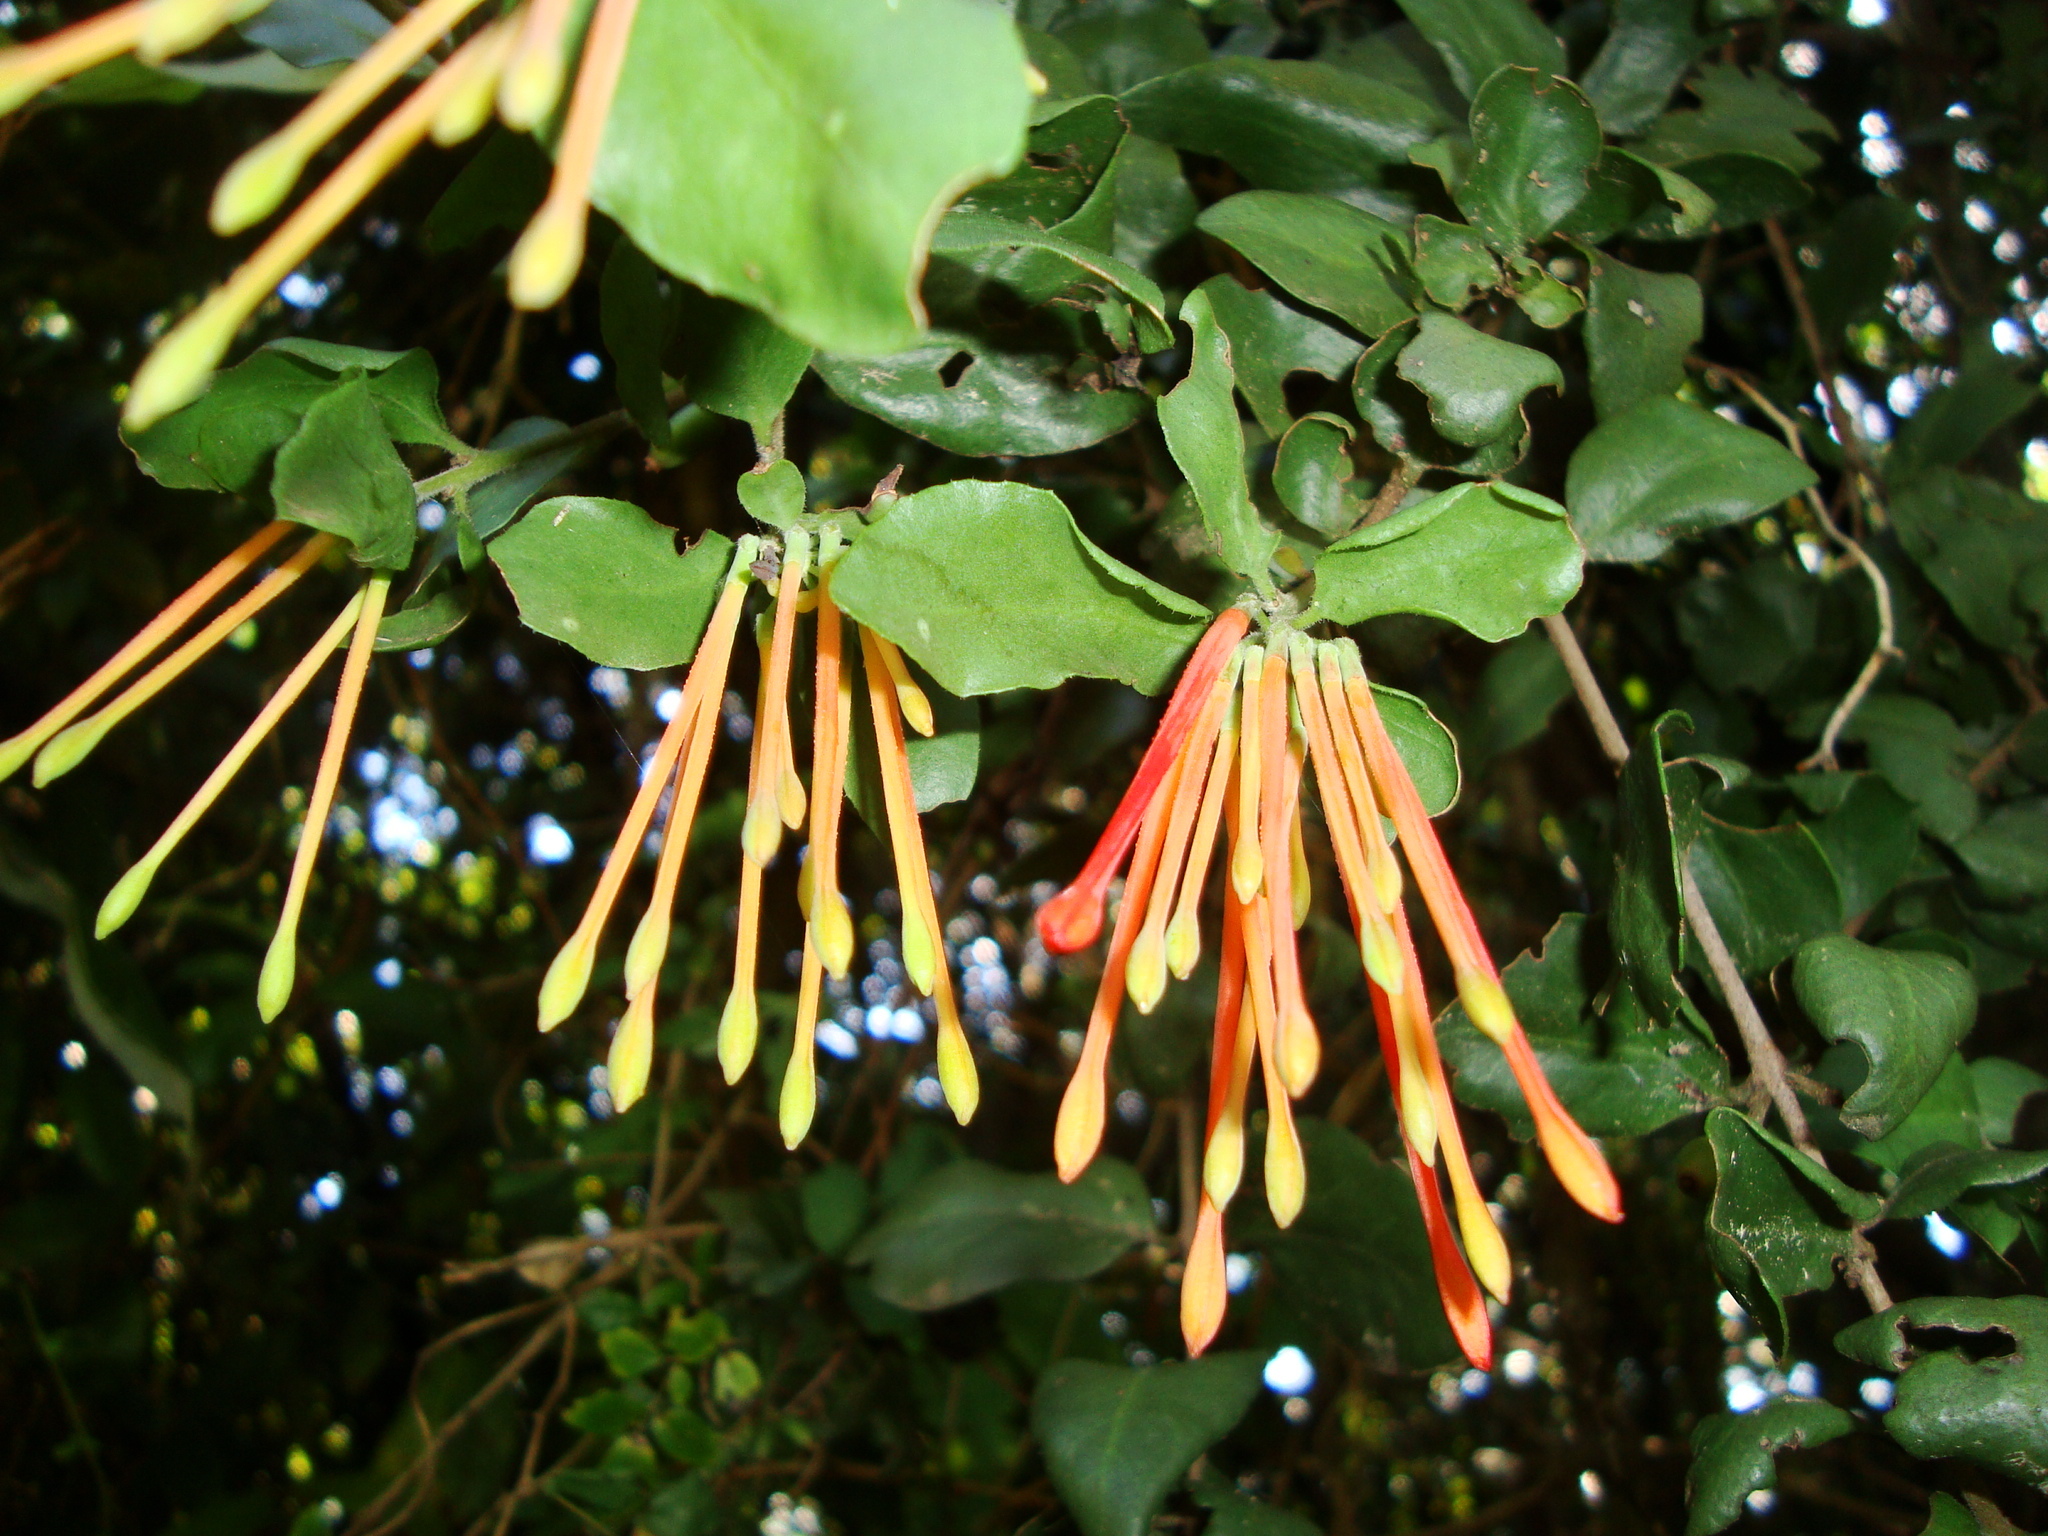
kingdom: Plantae
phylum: Tracheophyta
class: Magnoliopsida
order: Santalales
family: Loranthaceae
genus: Tristerix
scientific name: Tristerix corymbosus
